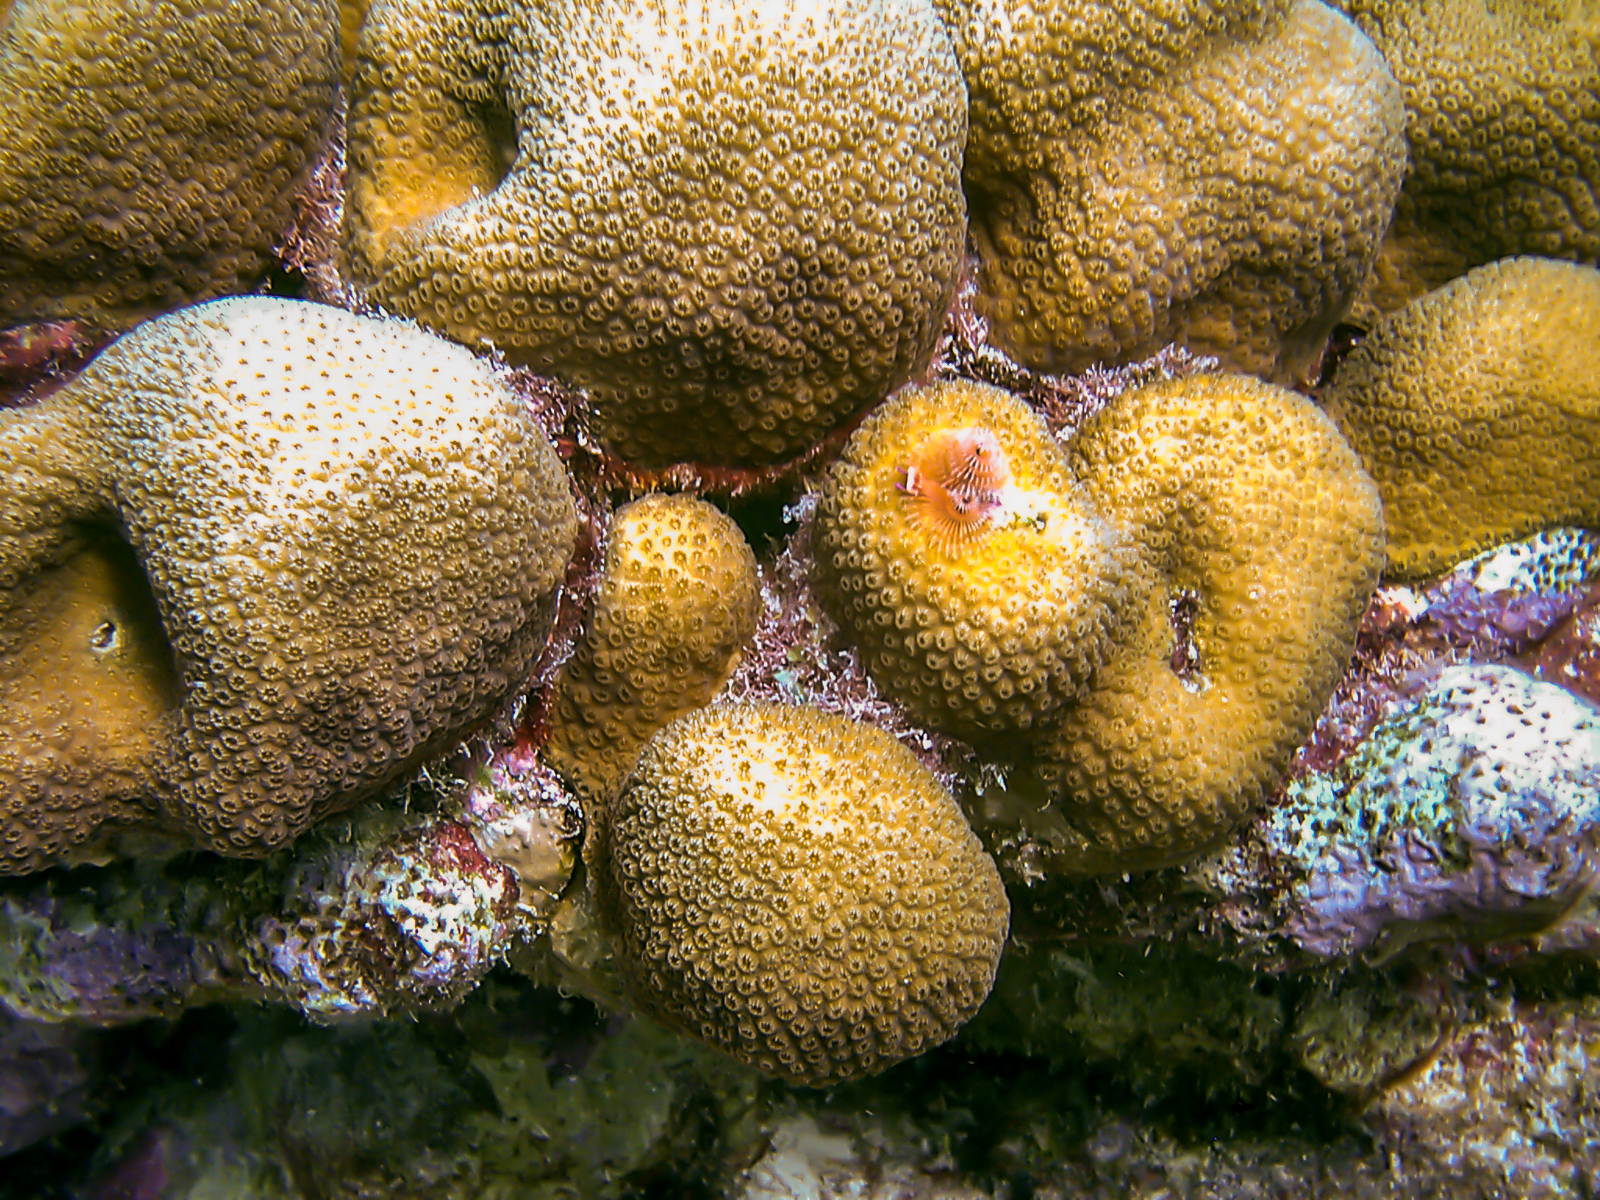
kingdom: Animalia
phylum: Cnidaria
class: Anthozoa
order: Scleractinia
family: Merulinidae
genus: Orbicella
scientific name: Orbicella annularis
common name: Boulder star coral
